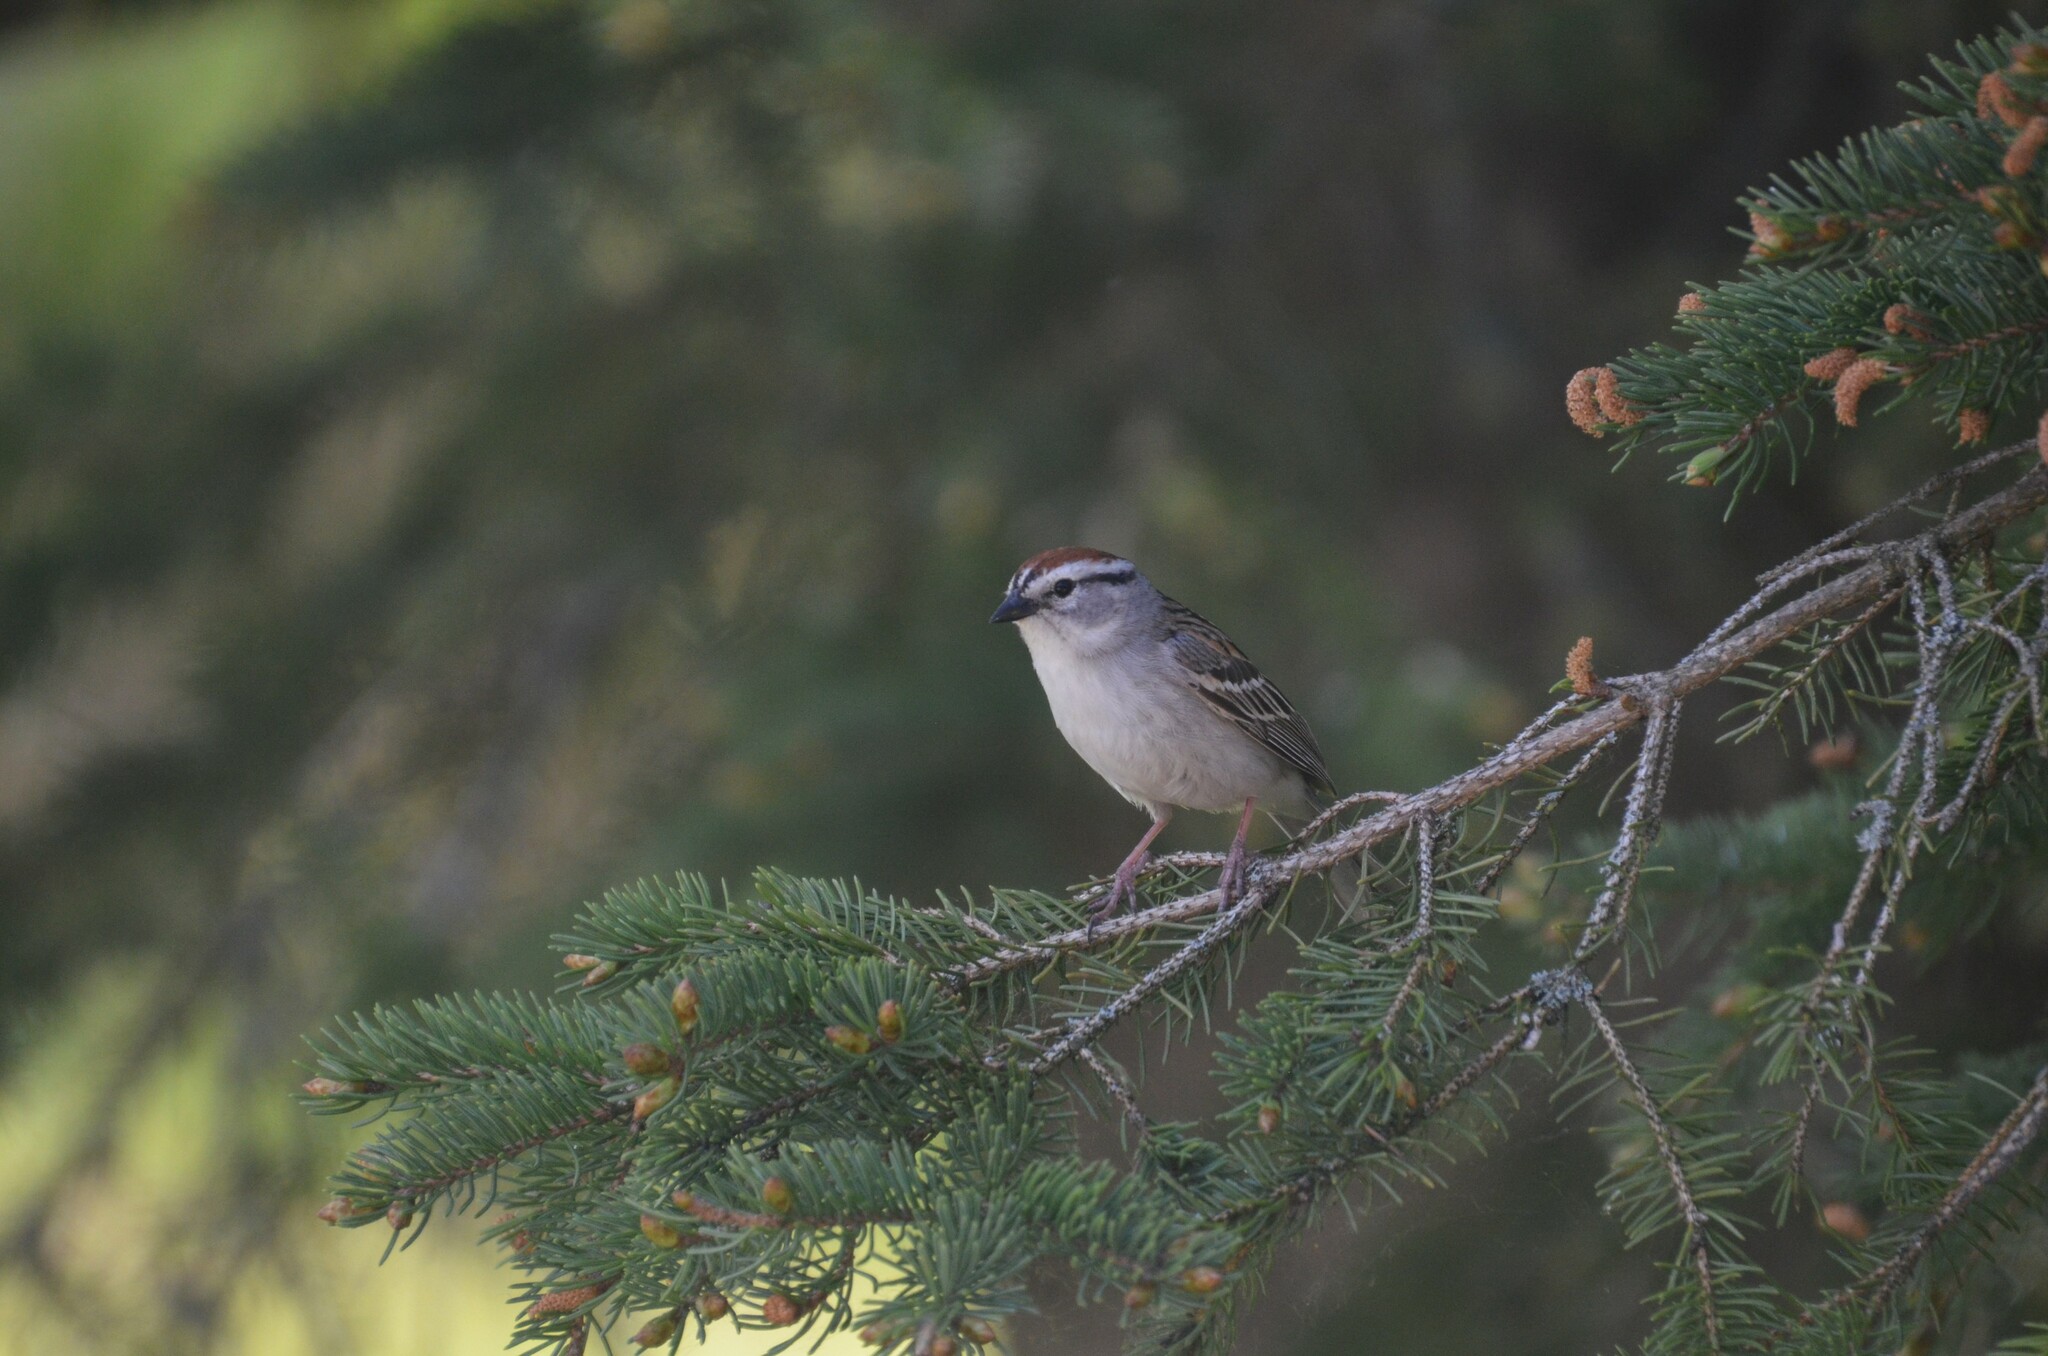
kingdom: Animalia
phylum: Chordata
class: Aves
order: Passeriformes
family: Passerellidae
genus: Spizella
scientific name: Spizella passerina
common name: Chipping sparrow
